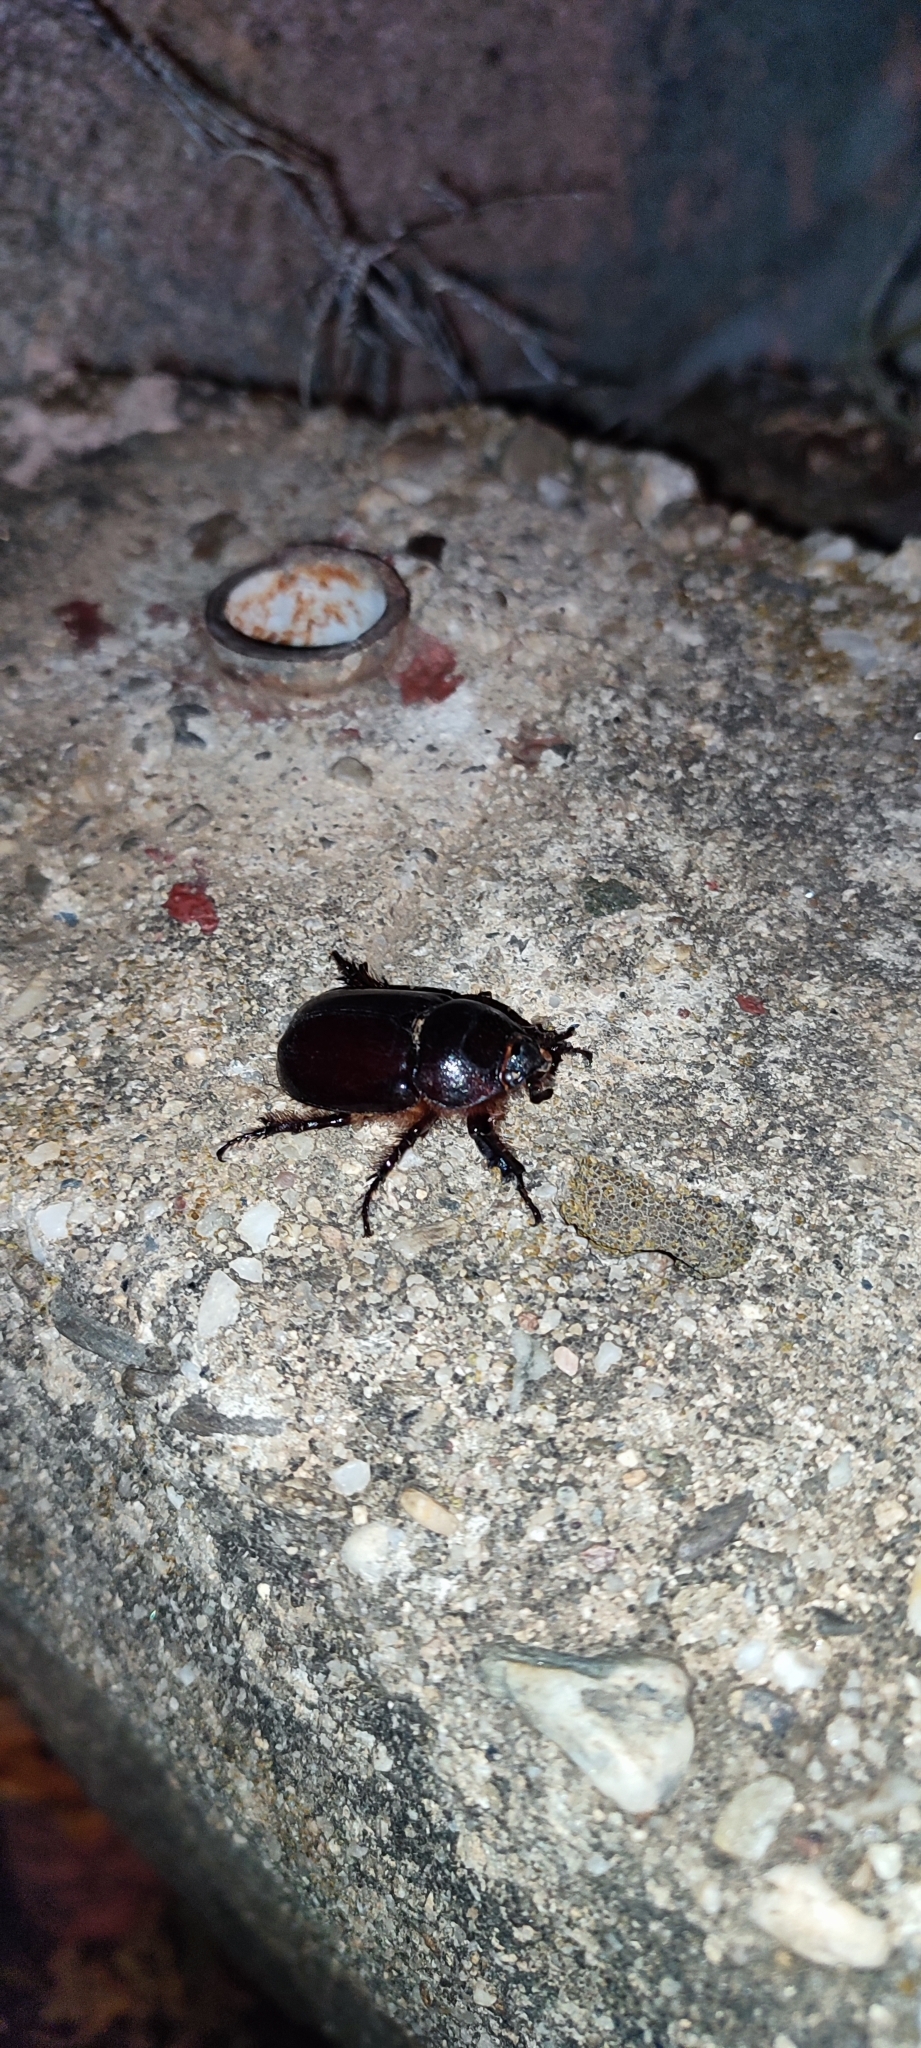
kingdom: Animalia
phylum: Arthropoda
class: Insecta
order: Coleoptera
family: Scarabaeidae
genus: Oryctes
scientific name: Oryctes nasicornis
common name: European rhinoceros beetle
